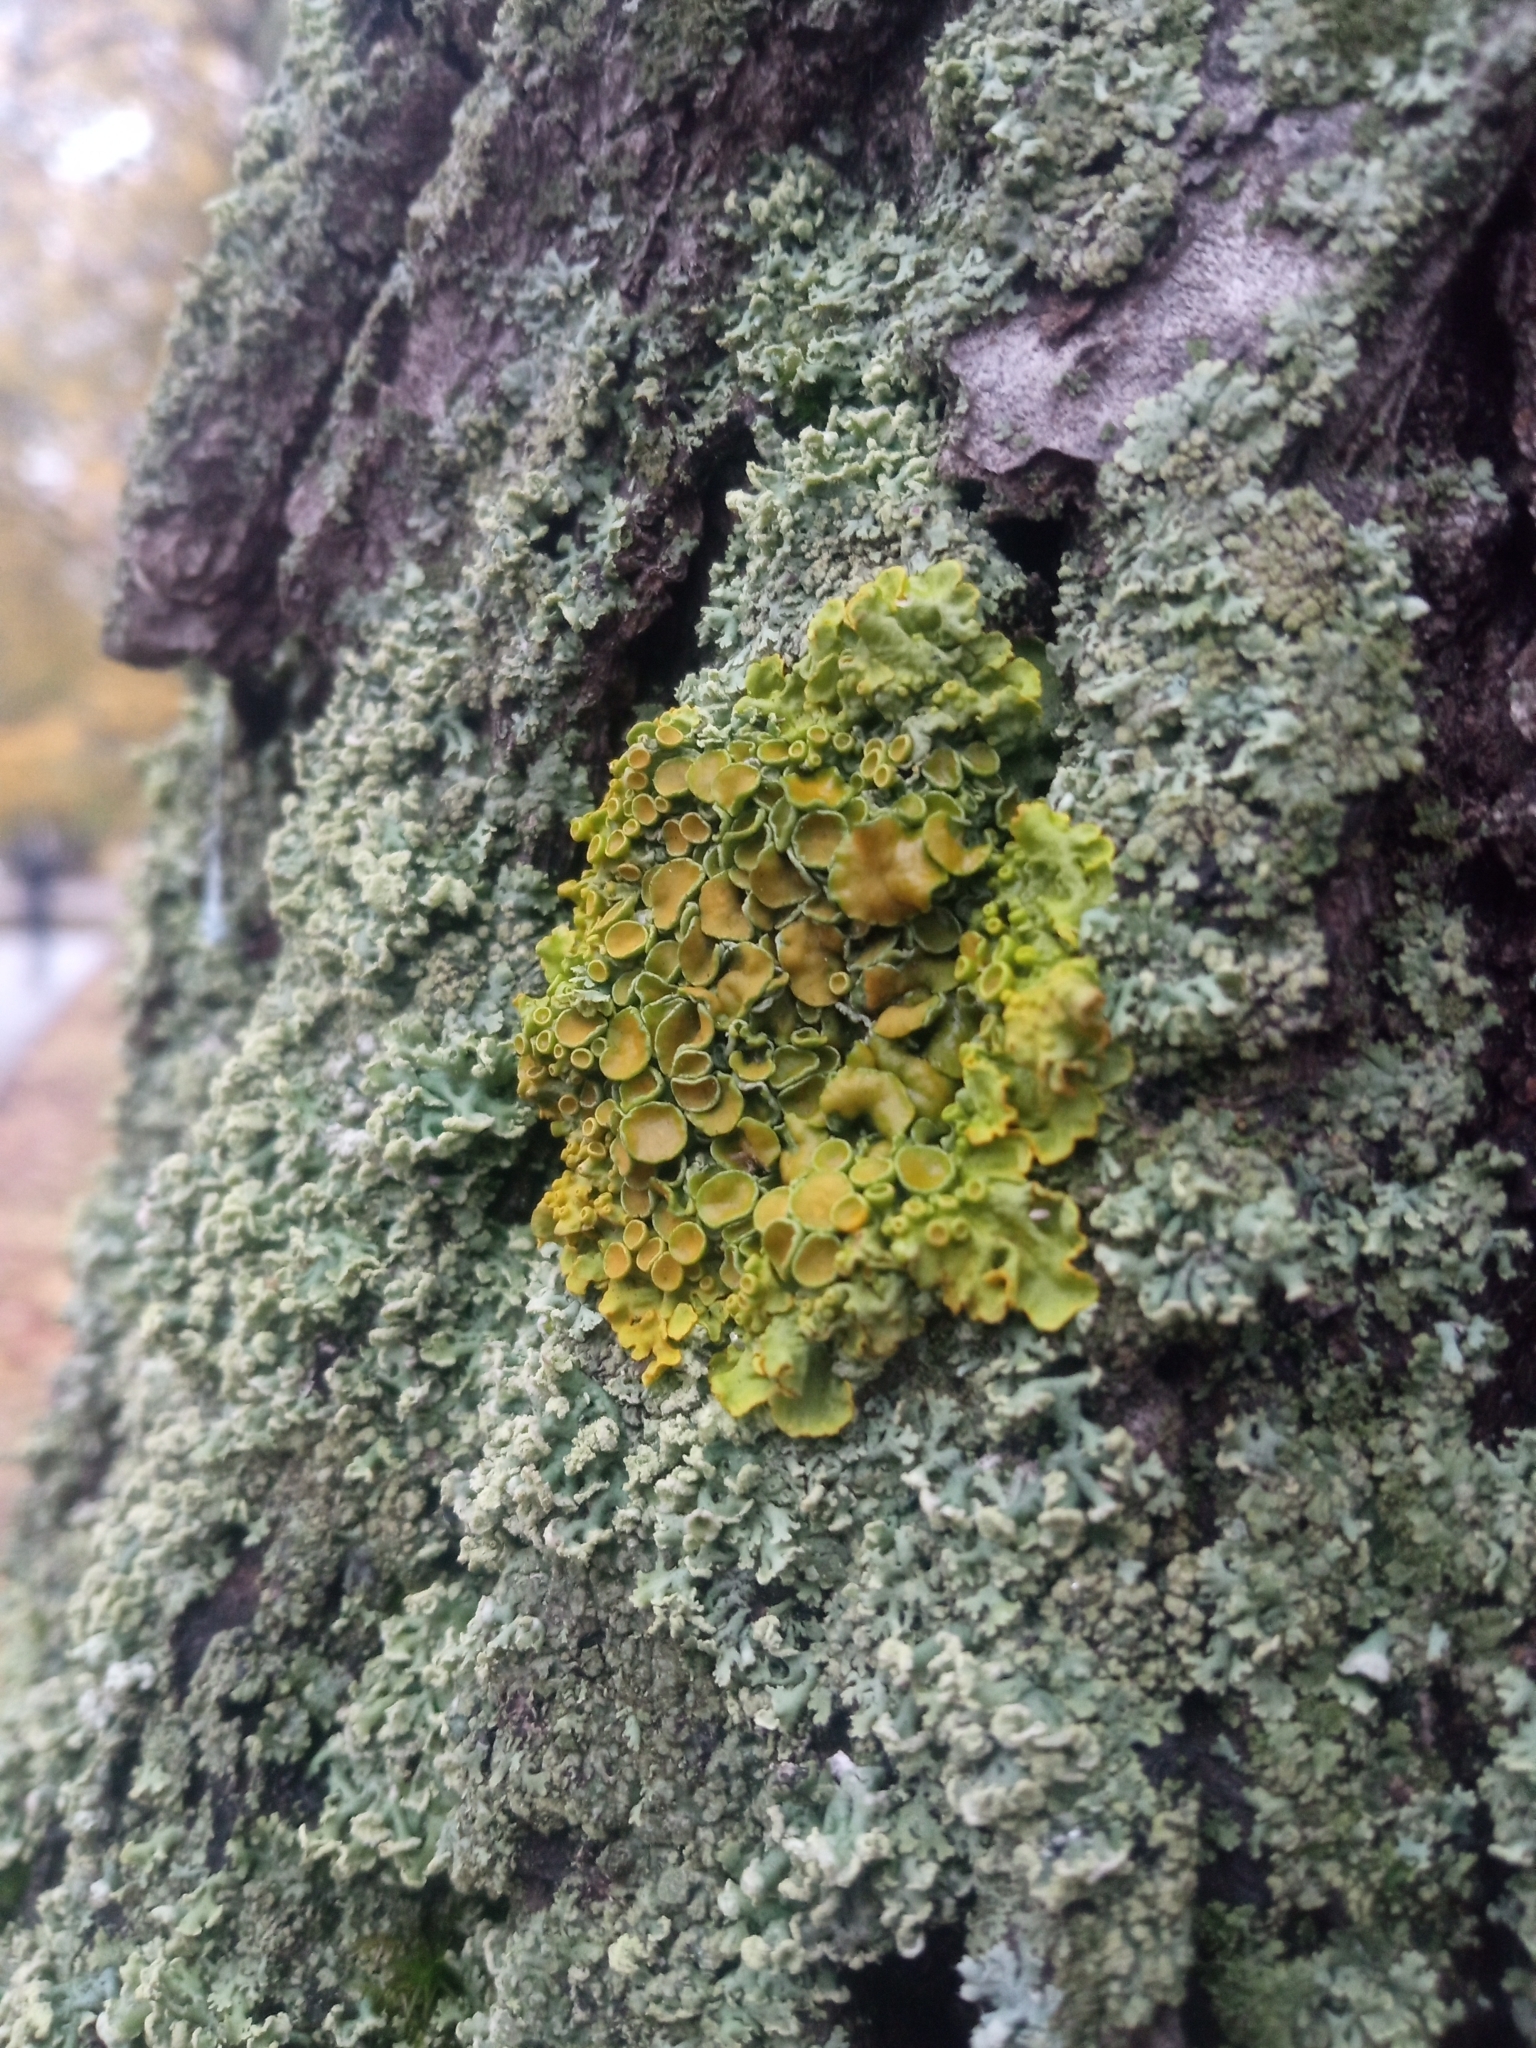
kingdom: Fungi
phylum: Ascomycota
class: Lecanoromycetes
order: Teloschistales
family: Teloschistaceae
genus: Xanthoria
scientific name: Xanthoria parietina
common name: Common orange lichen
